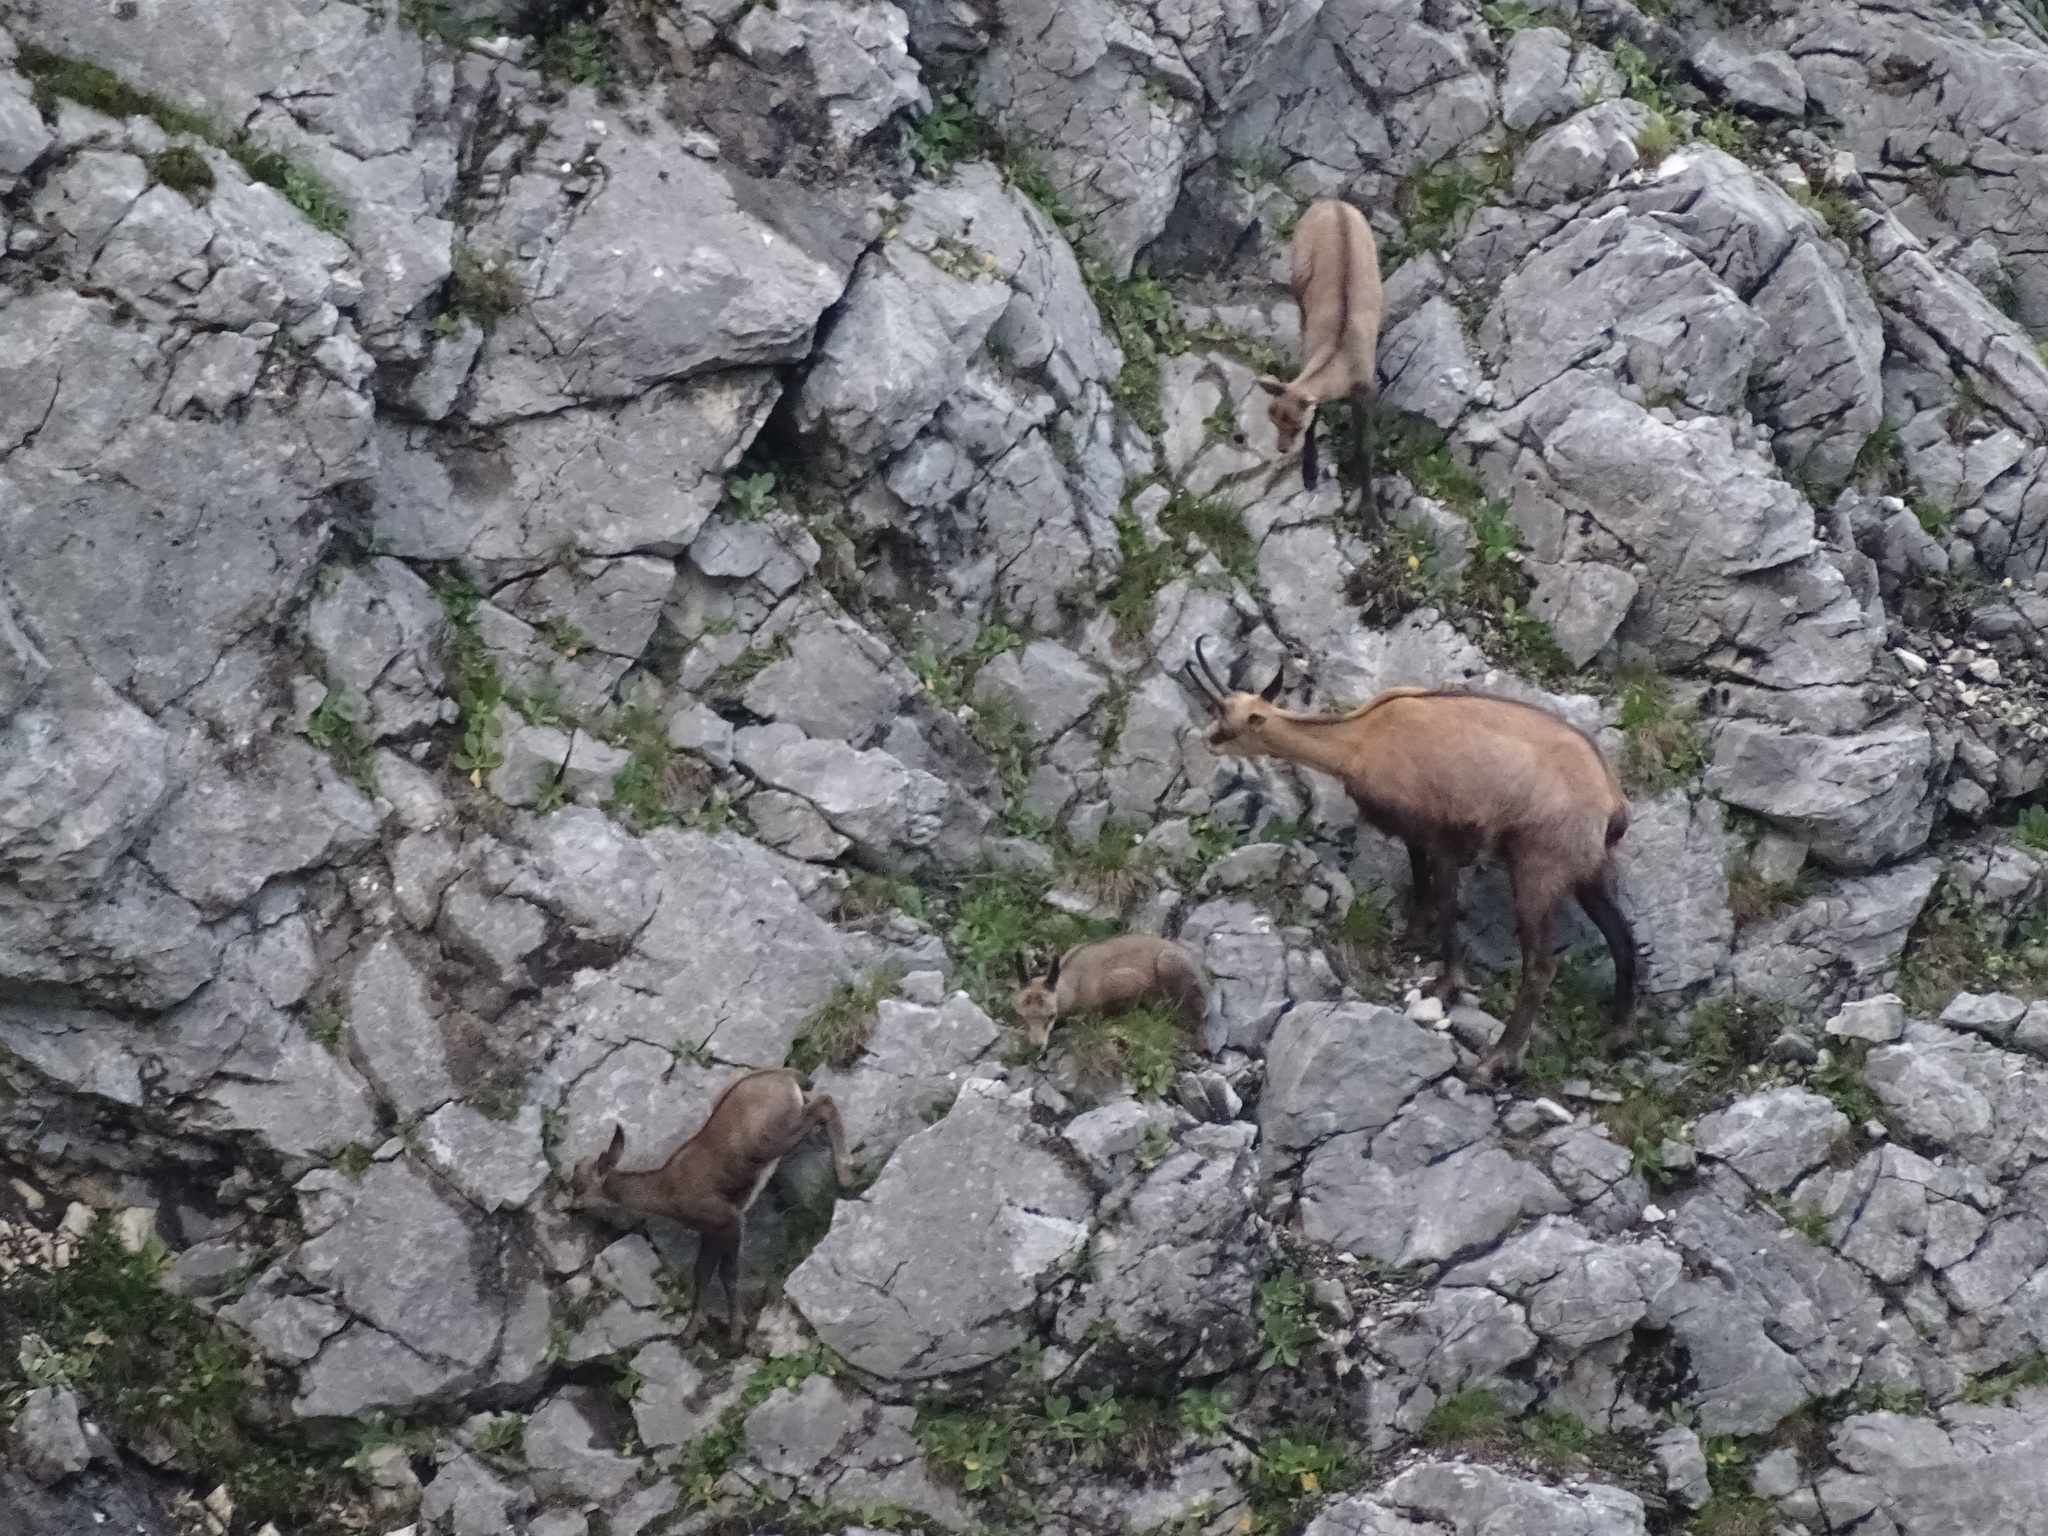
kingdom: Animalia
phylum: Chordata
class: Mammalia
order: Artiodactyla
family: Bovidae
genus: Rupicapra
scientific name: Rupicapra rupicapra
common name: Chamois
